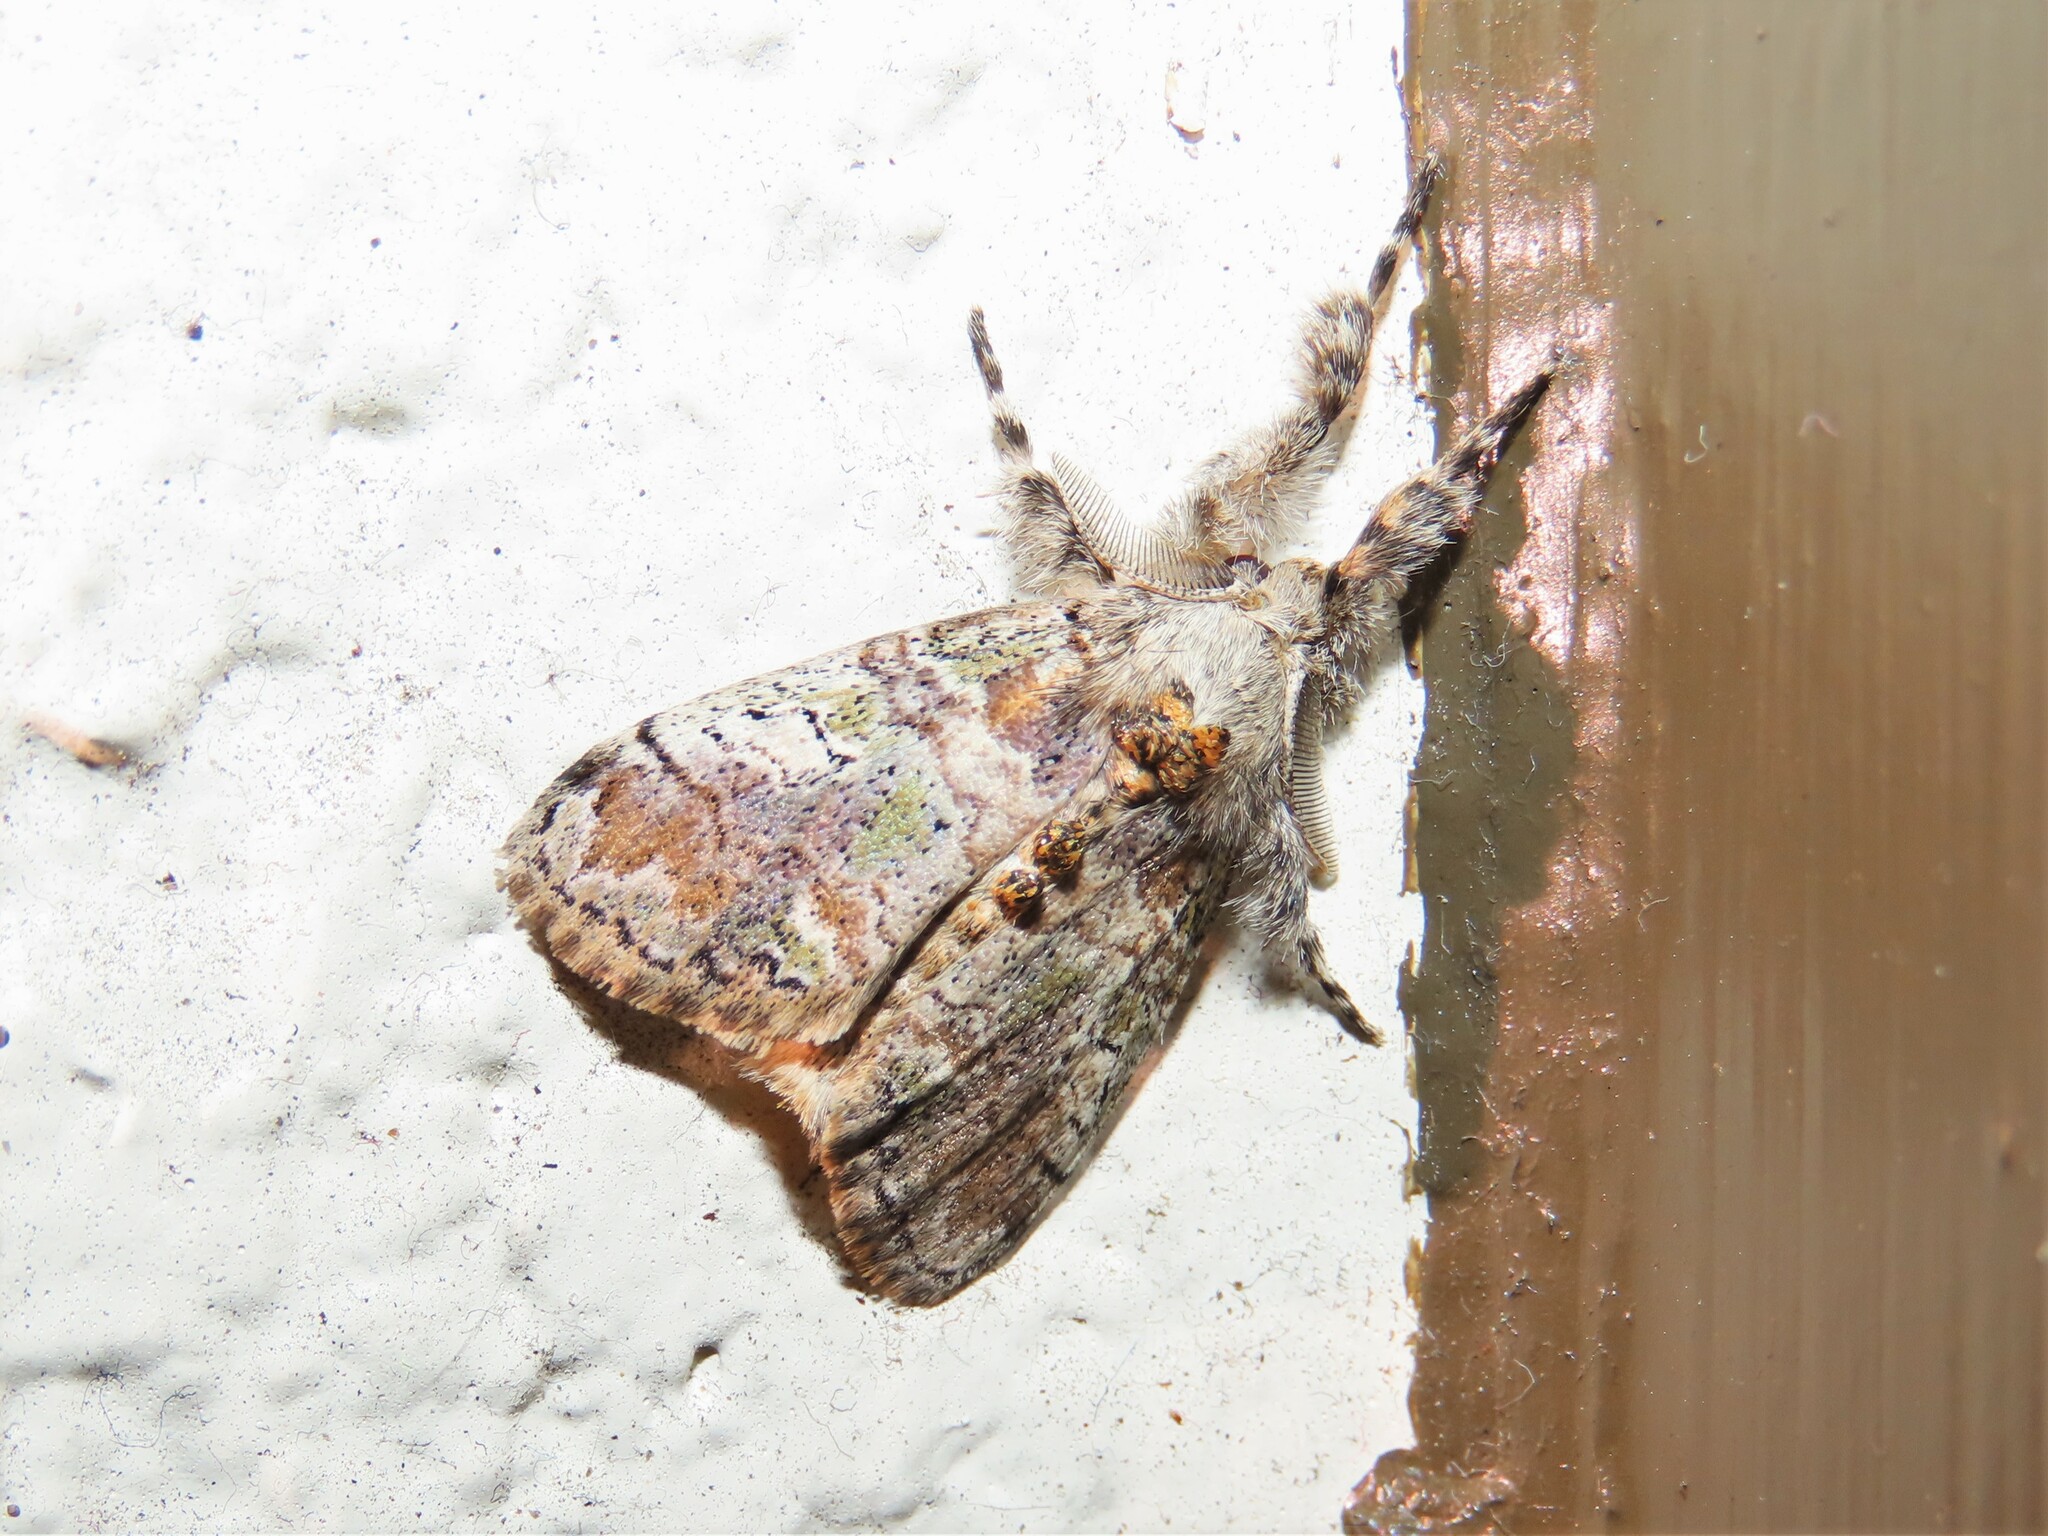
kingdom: Animalia
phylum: Arthropoda
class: Insecta
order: Lepidoptera
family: Erebidae
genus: Dasychira
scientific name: Dasychira meridionalis
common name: Southern tussock moth
